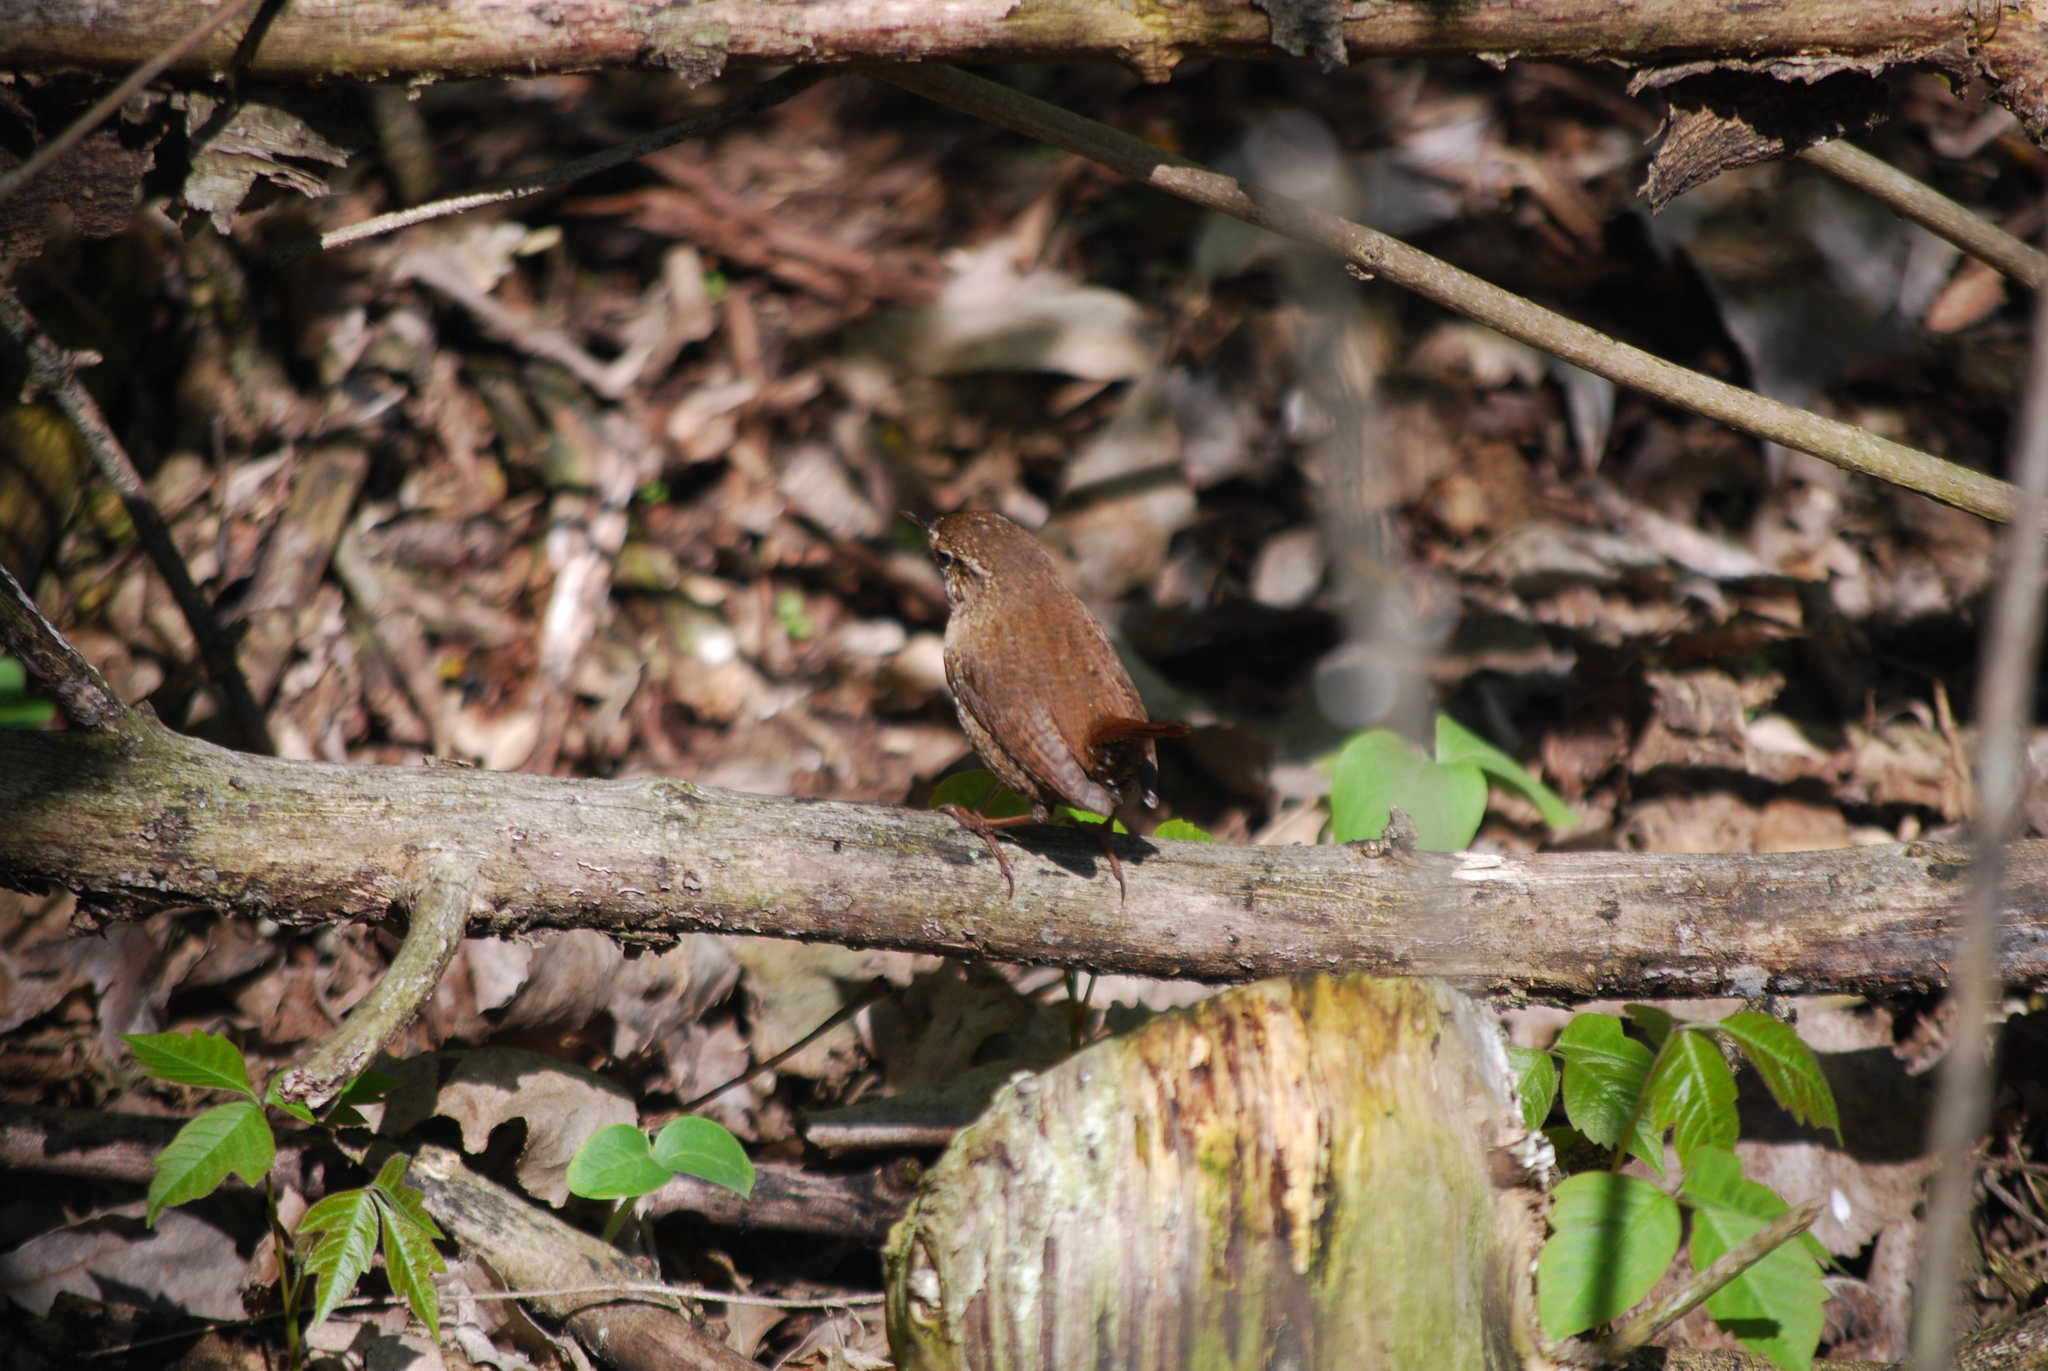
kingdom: Animalia
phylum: Chordata
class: Aves
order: Passeriformes
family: Troglodytidae
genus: Troglodytes
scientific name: Troglodytes hiemalis
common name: Winter wren
